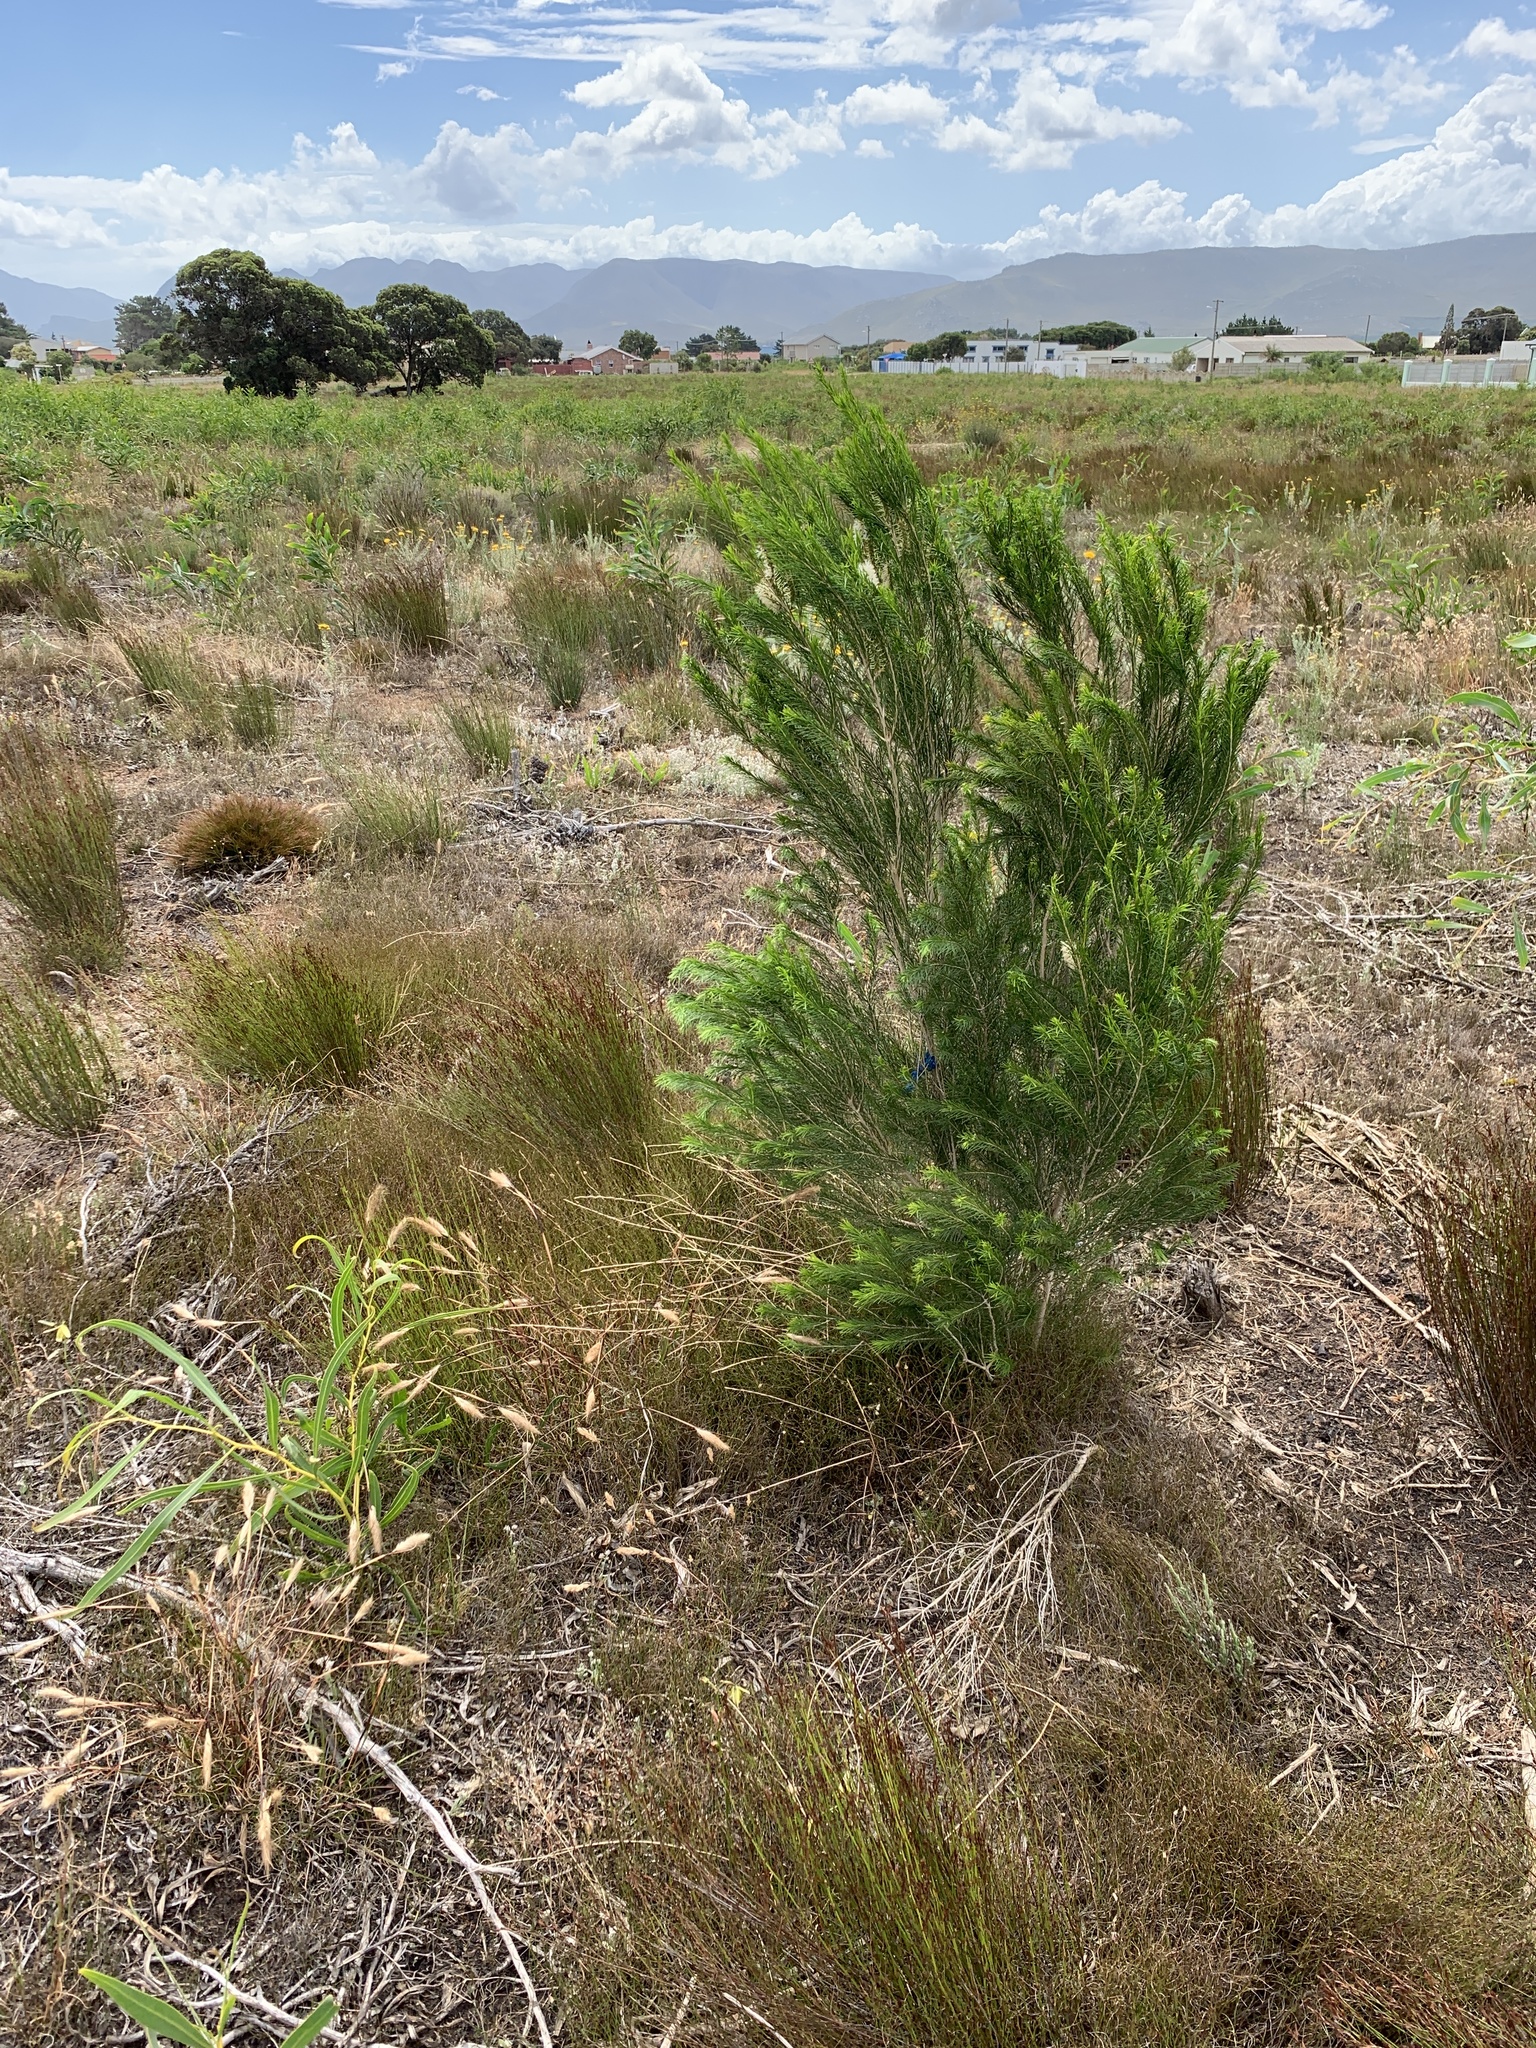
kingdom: Plantae
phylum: Tracheophyta
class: Magnoliopsida
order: Myrtales
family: Myrtaceae
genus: Melaleuca
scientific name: Melaleuca armillaris
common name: Bracelet honey myrtle
